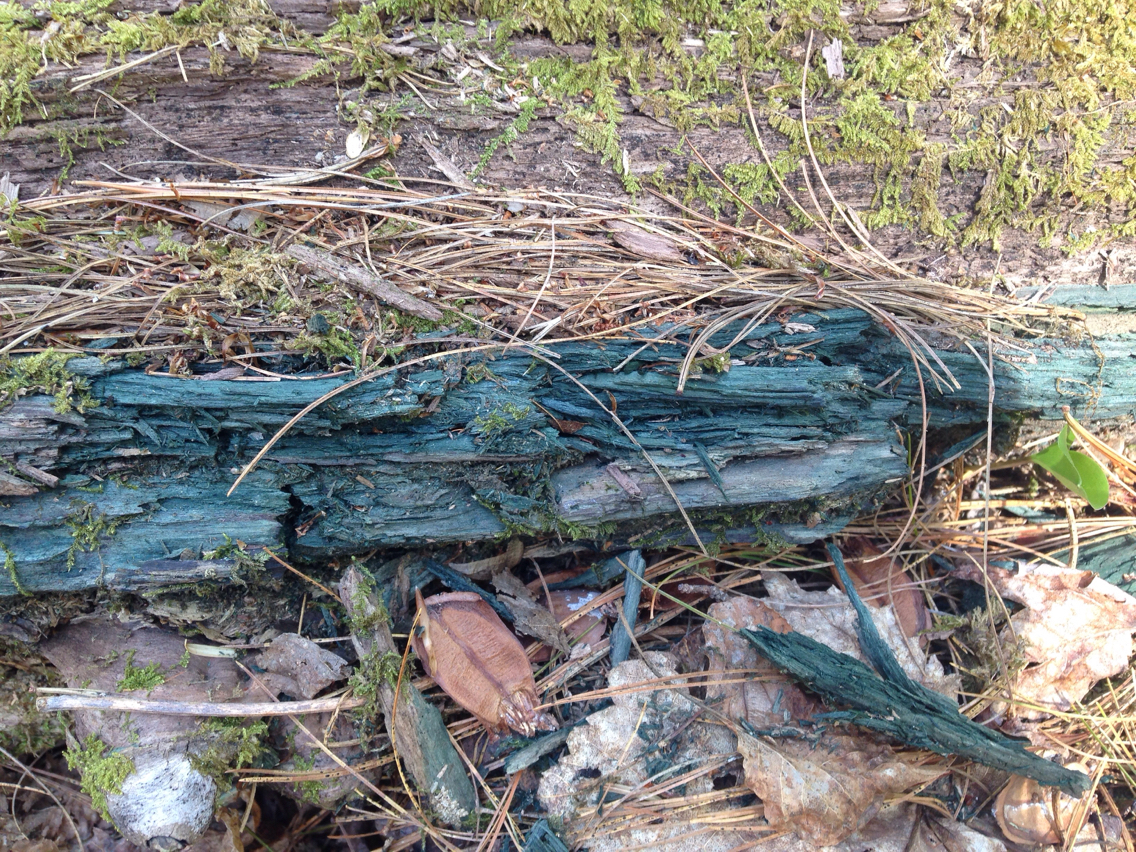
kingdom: Fungi
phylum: Ascomycota
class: Leotiomycetes
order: Helotiales
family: Chlorociboriaceae
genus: Chlorociboria
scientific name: Chlorociboria
